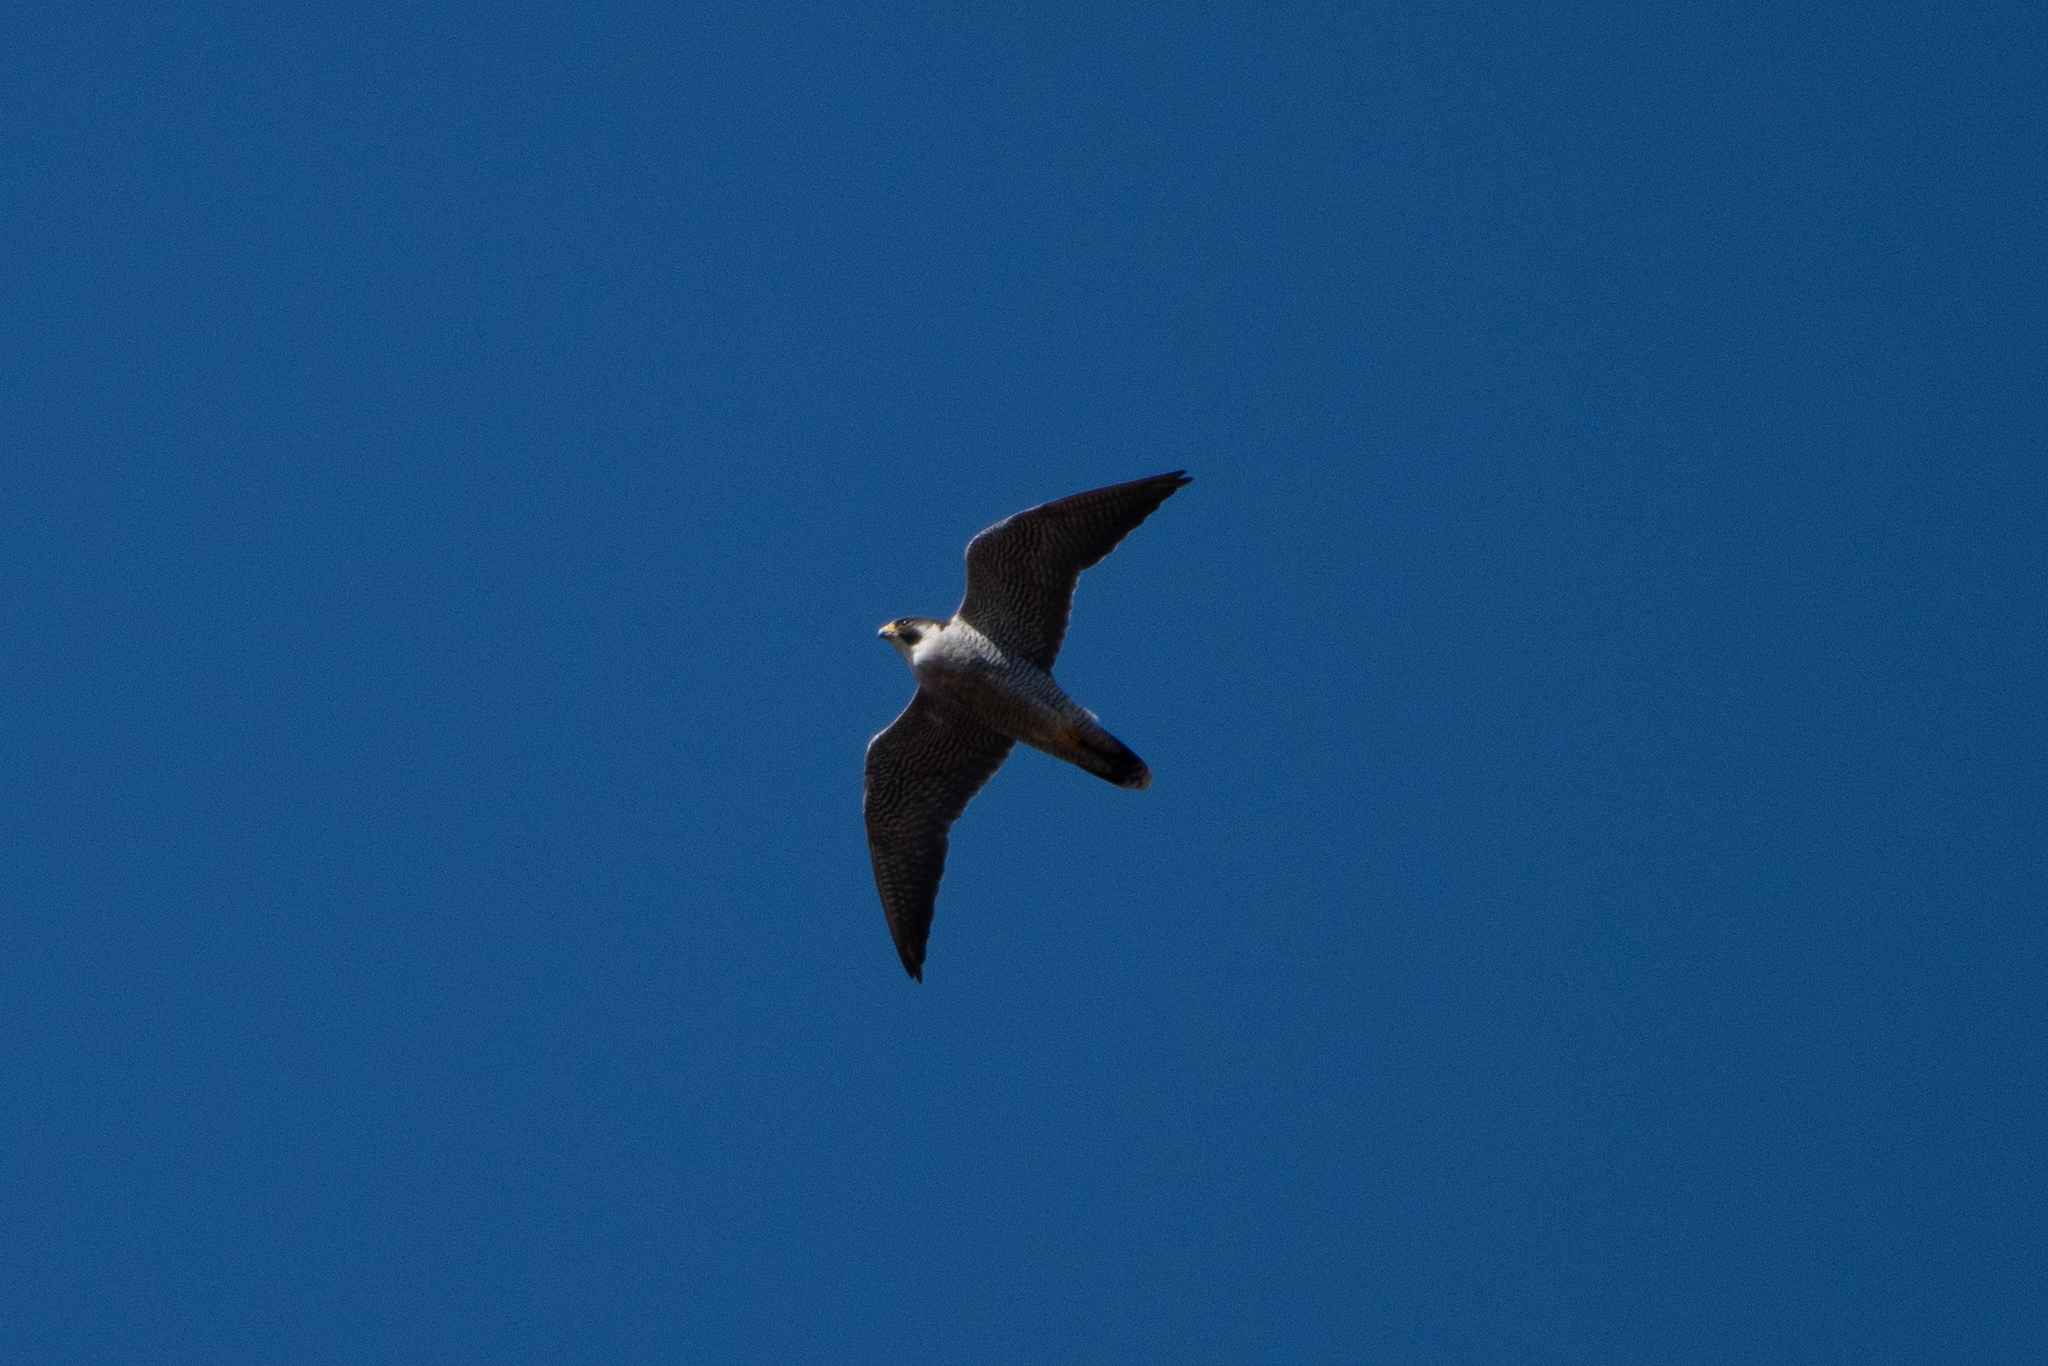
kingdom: Animalia
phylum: Chordata
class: Aves
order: Falconiformes
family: Falconidae
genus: Falco
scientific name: Falco peregrinus
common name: Peregrine falcon
